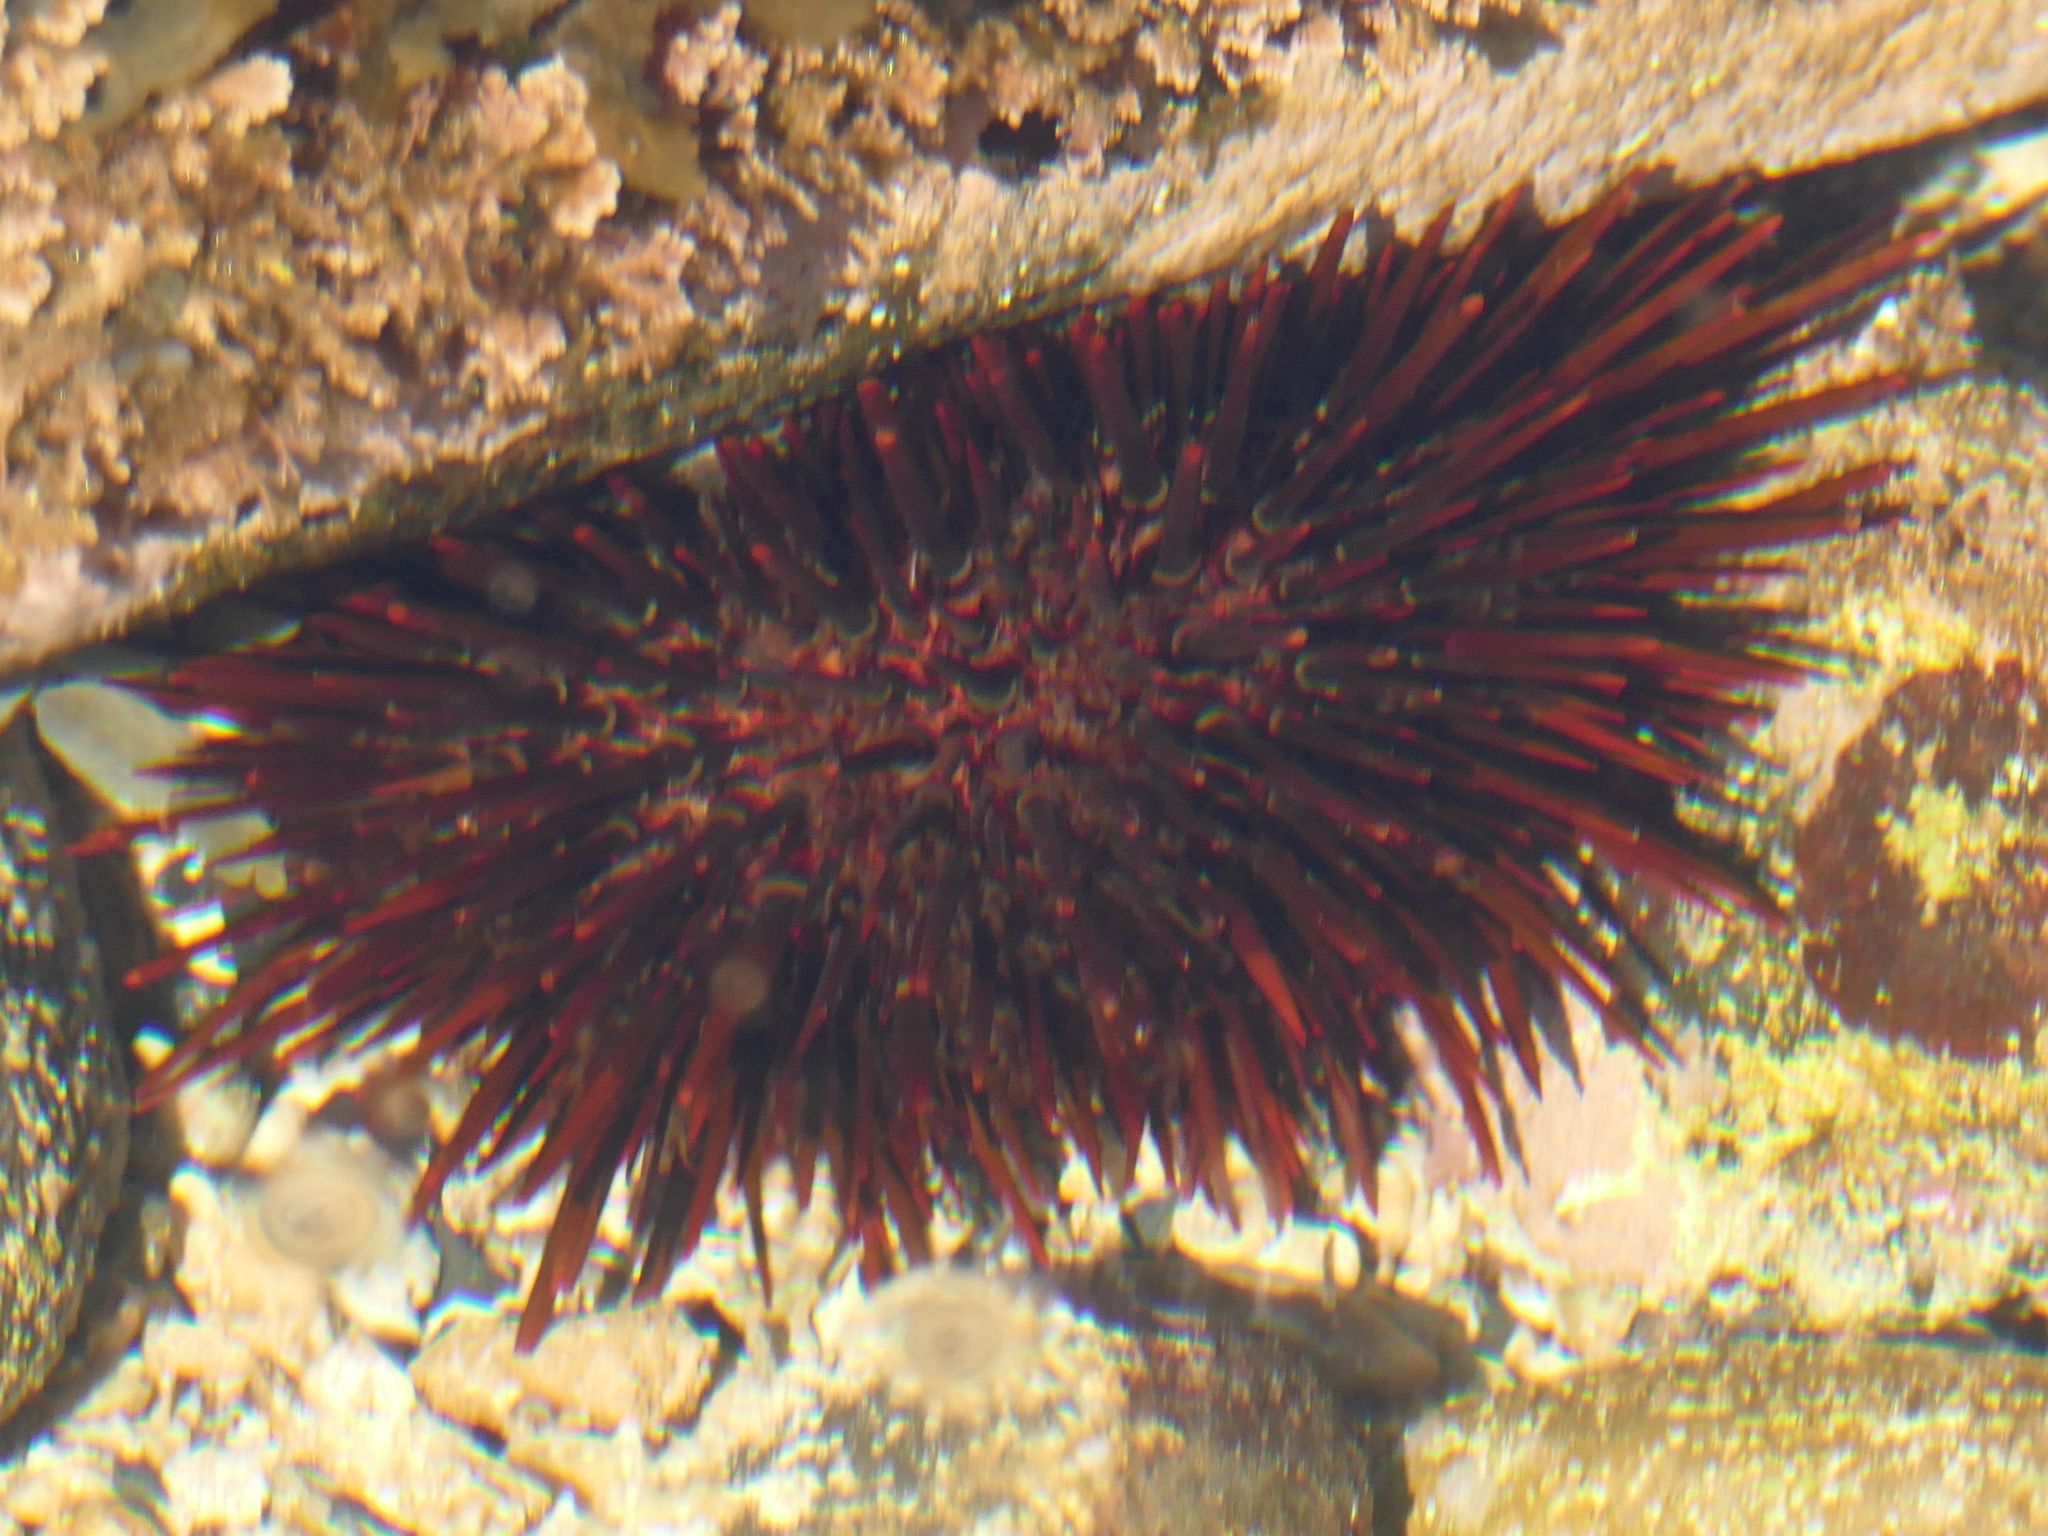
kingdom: Animalia
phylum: Echinodermata
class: Echinoidea
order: Camarodonta
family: Echinometridae
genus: Heliocidaris
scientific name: Heliocidaris tuberculata
